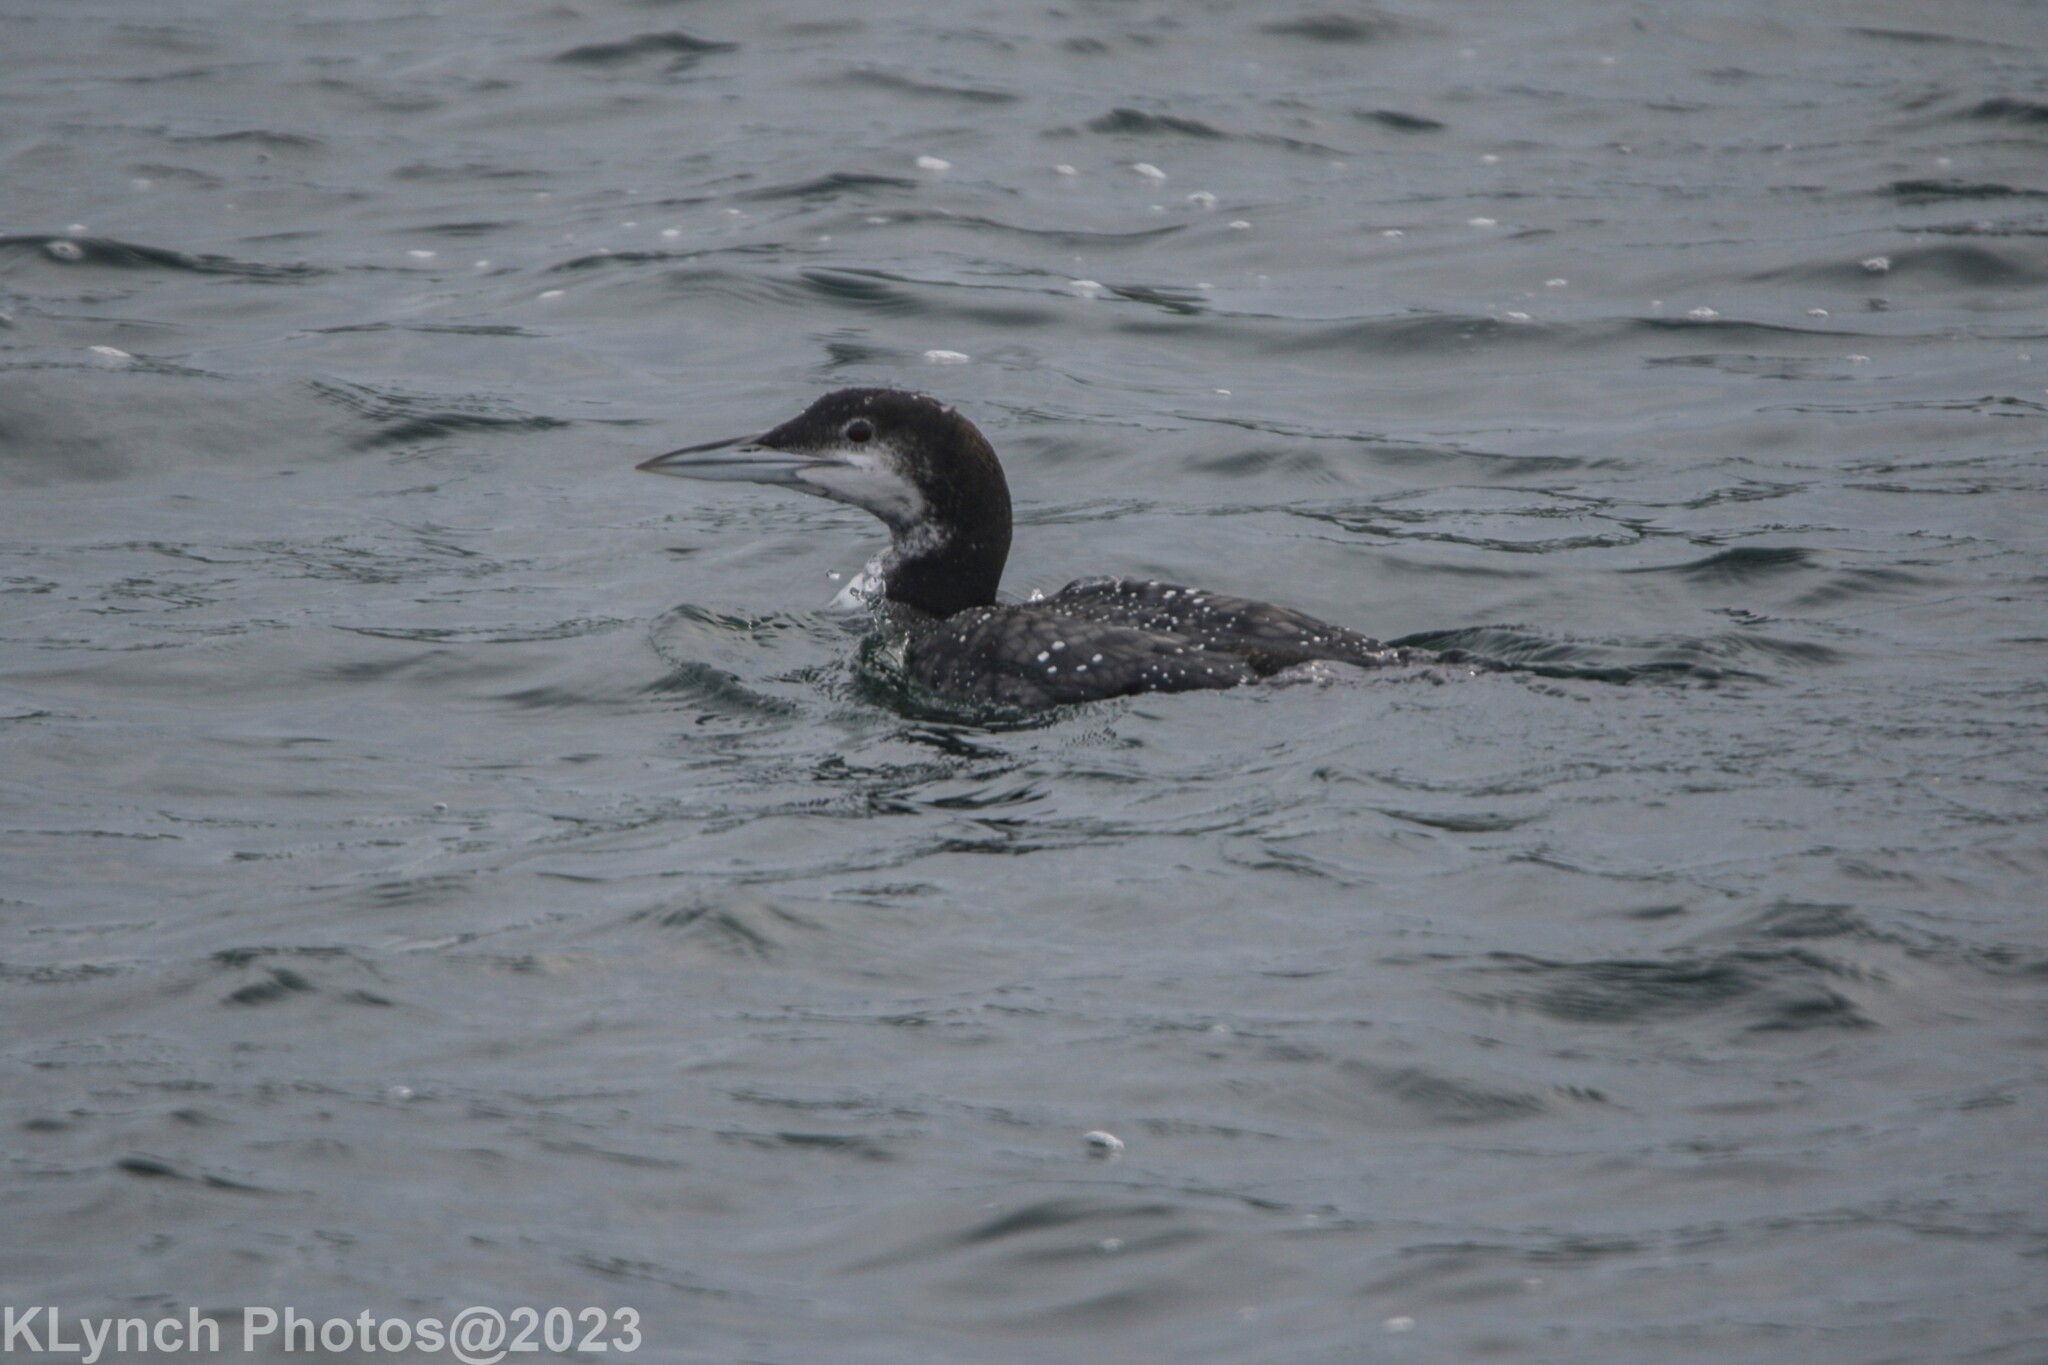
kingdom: Animalia
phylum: Chordata
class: Aves
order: Gaviiformes
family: Gaviidae
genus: Gavia
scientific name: Gavia immer
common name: Common loon
